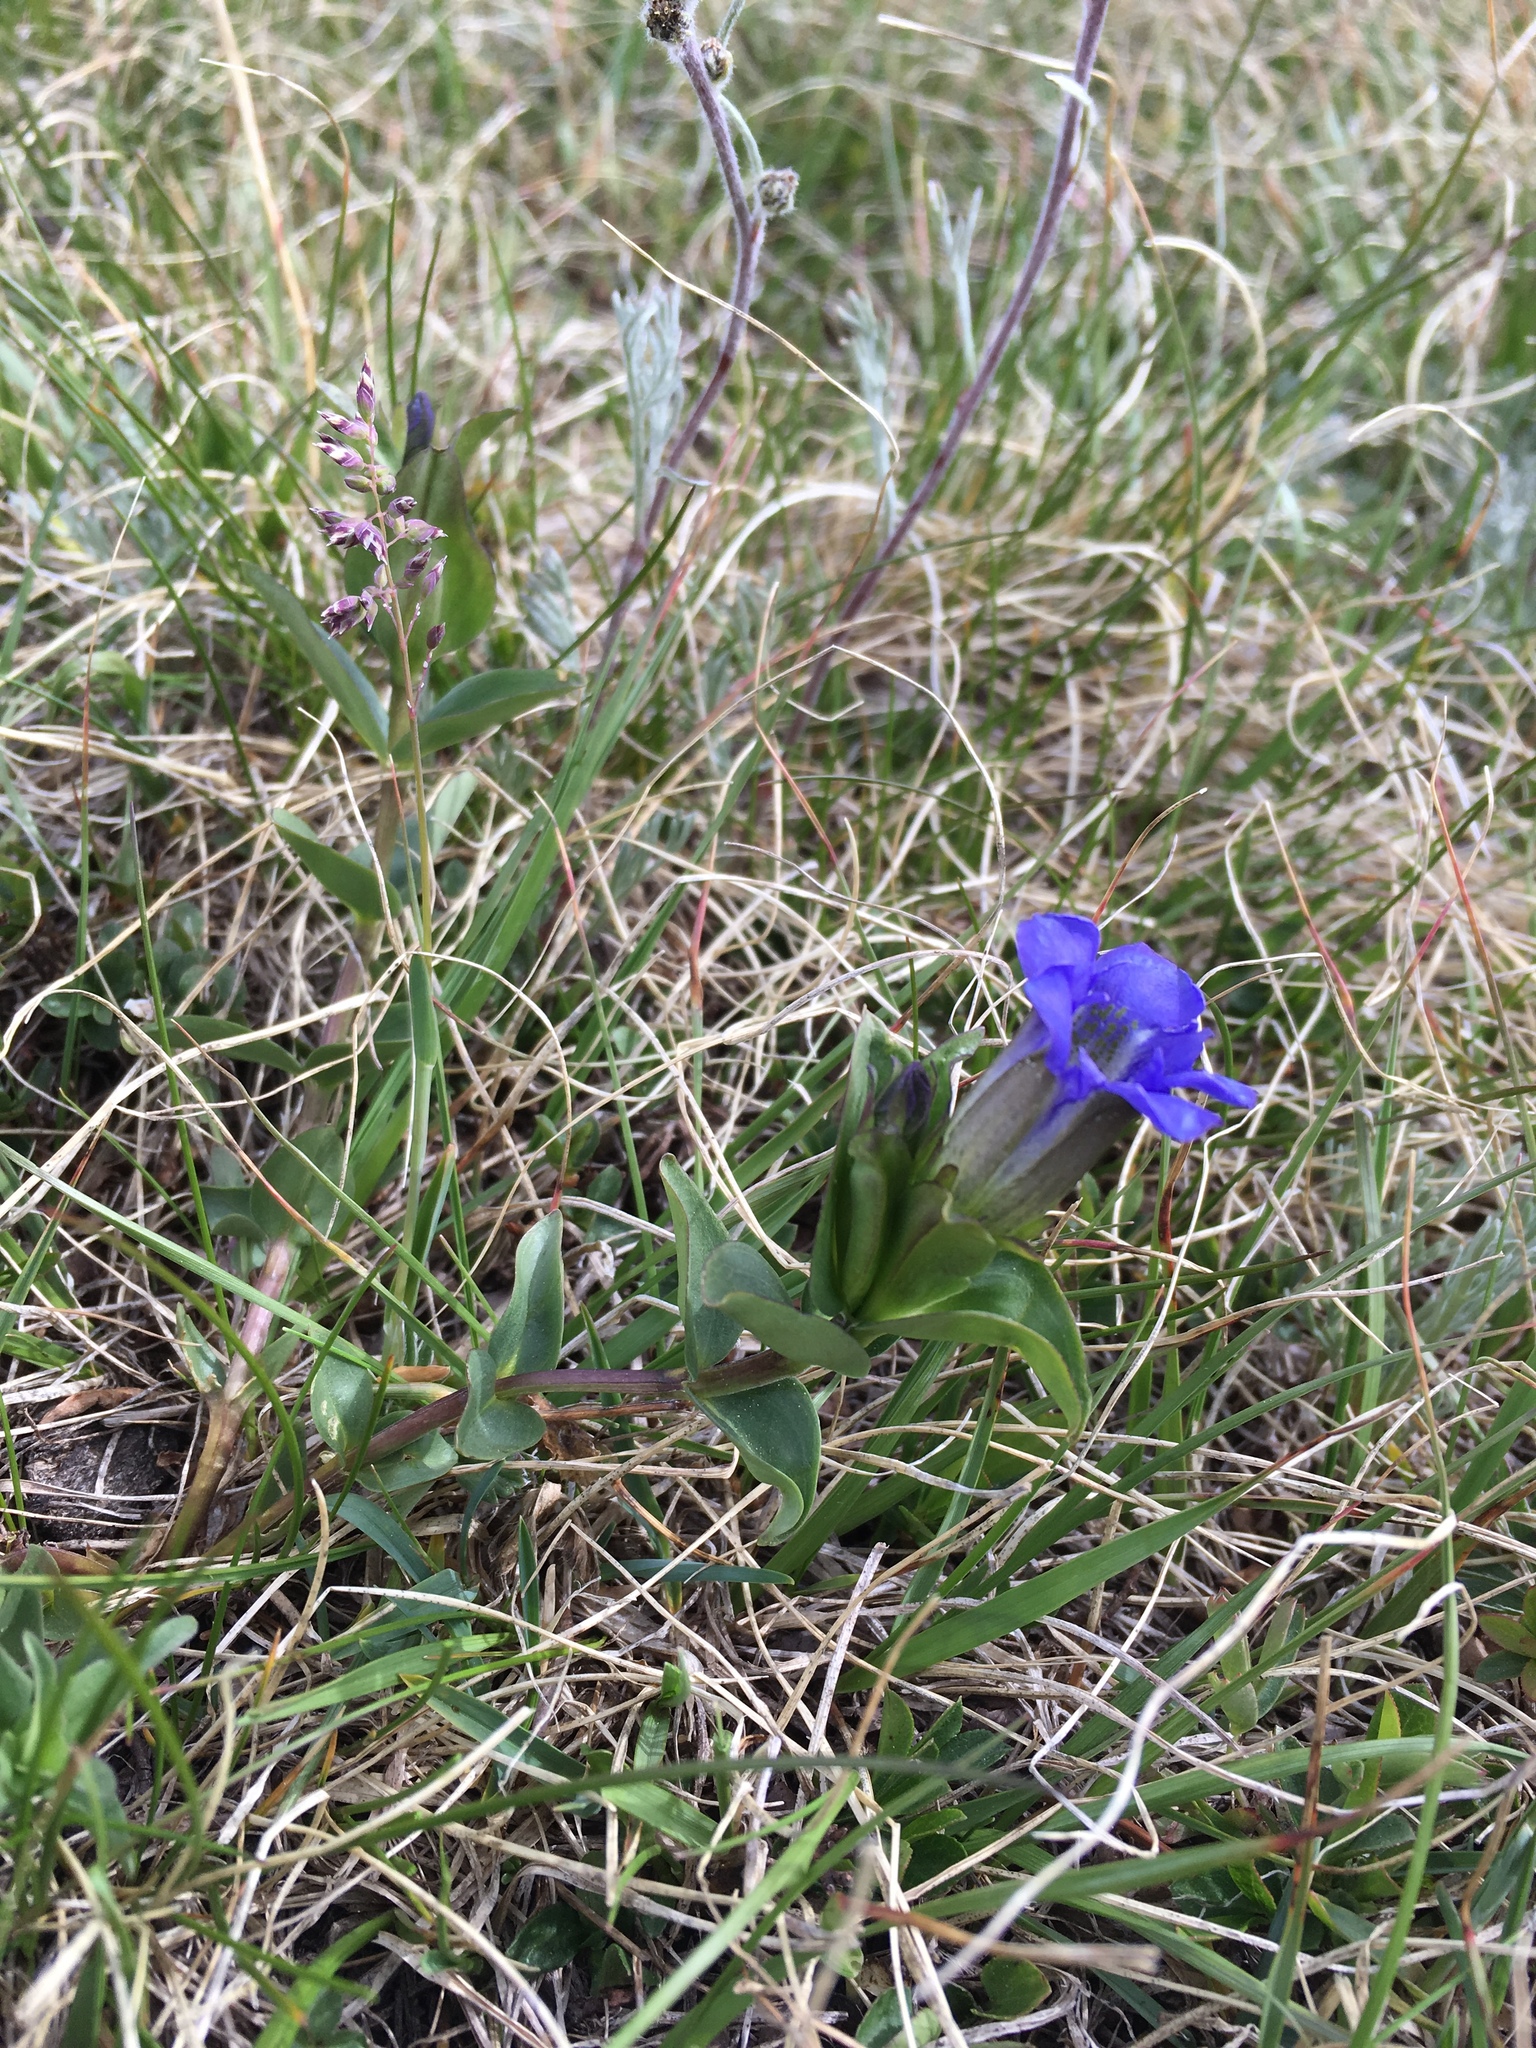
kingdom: Plantae
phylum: Tracheophyta
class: Magnoliopsida
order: Gentianales
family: Gentianaceae
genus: Gentiana
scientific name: Gentiana parryi
